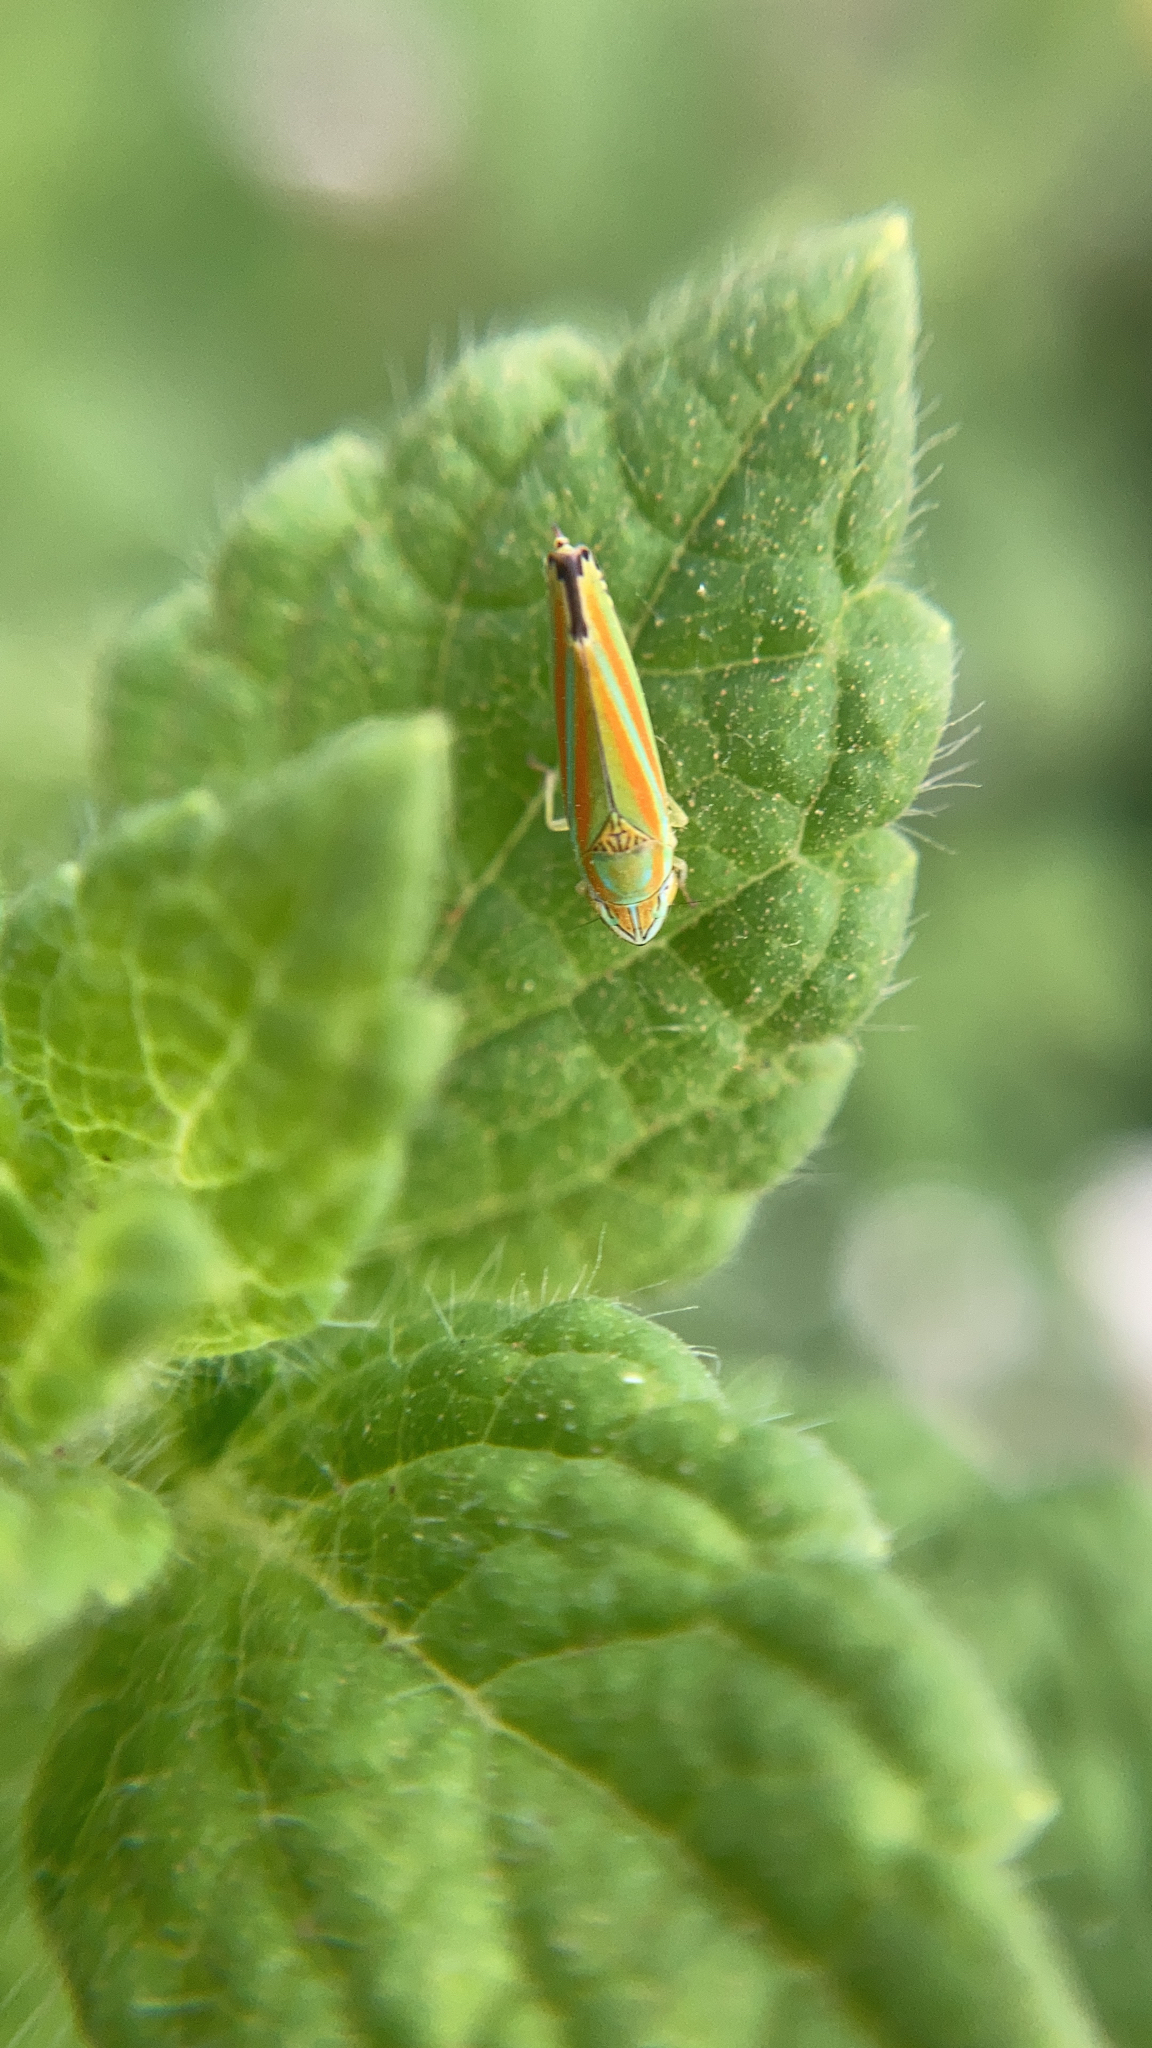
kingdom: Animalia
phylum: Arthropoda
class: Insecta
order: Hemiptera
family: Cicadellidae
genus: Graphocephala
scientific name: Graphocephala versuta
